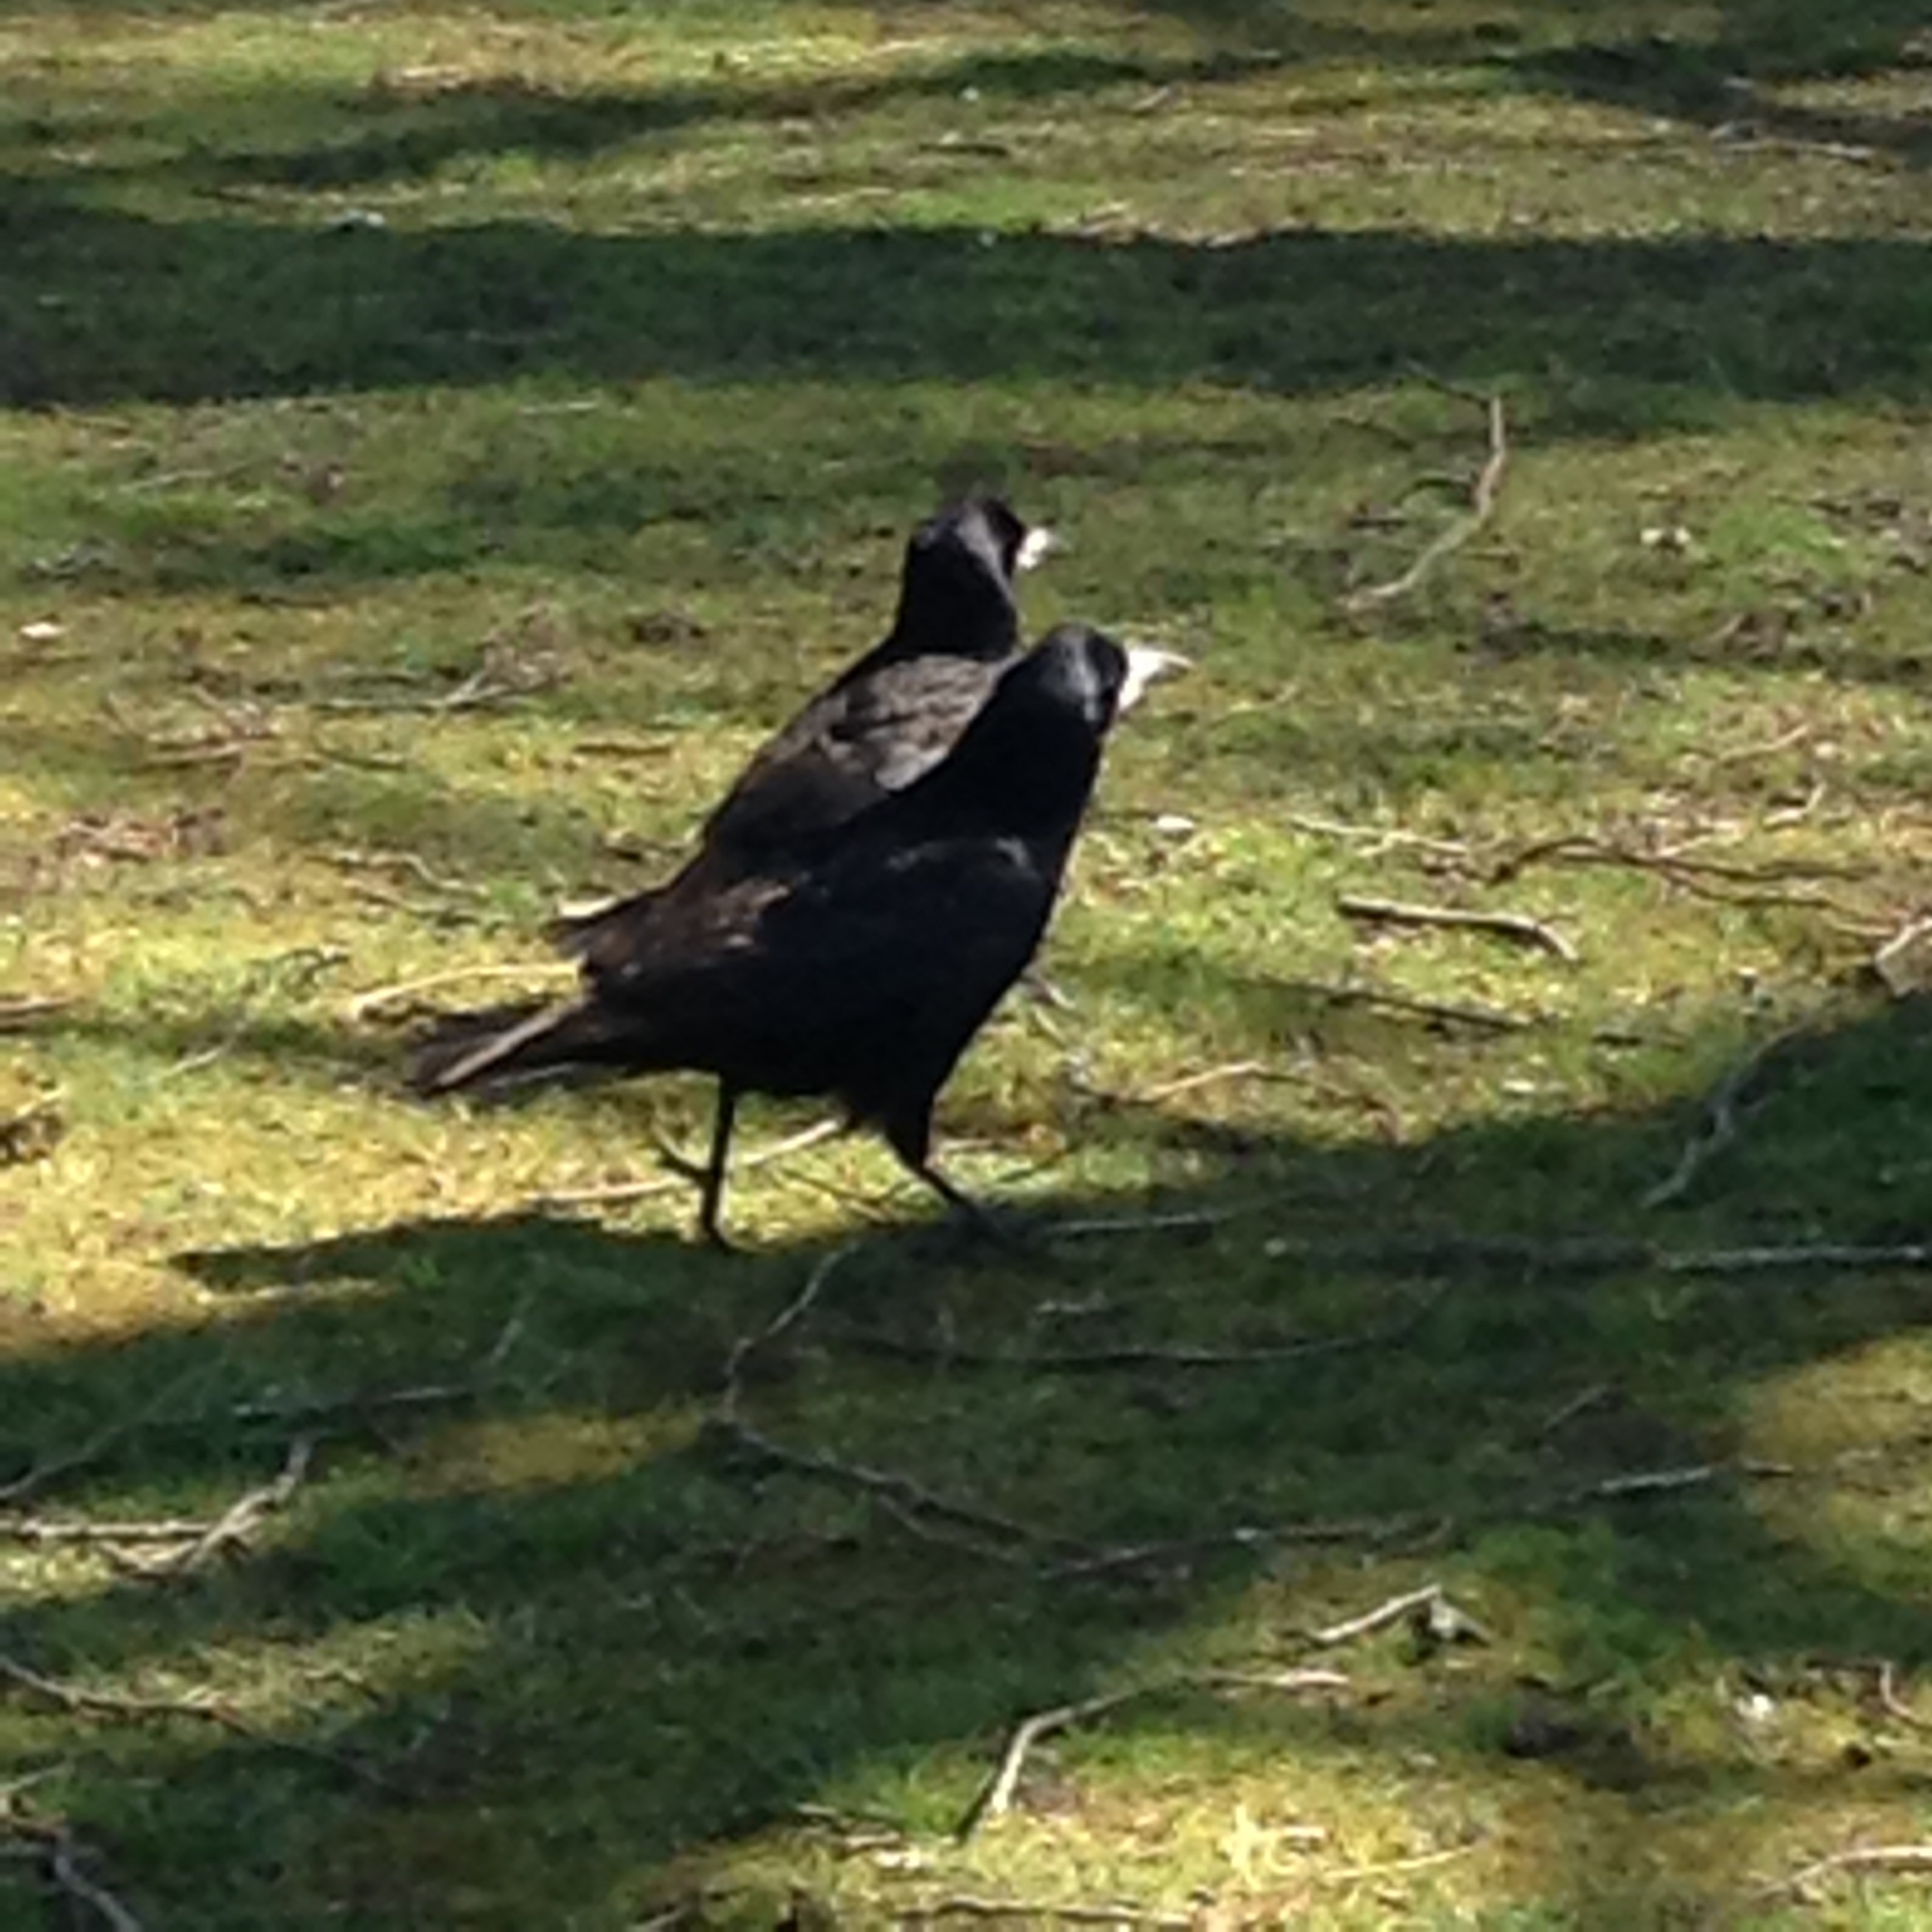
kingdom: Animalia
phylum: Chordata
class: Aves
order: Passeriformes
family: Corvidae
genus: Corvus
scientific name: Corvus frugilegus
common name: Rook
